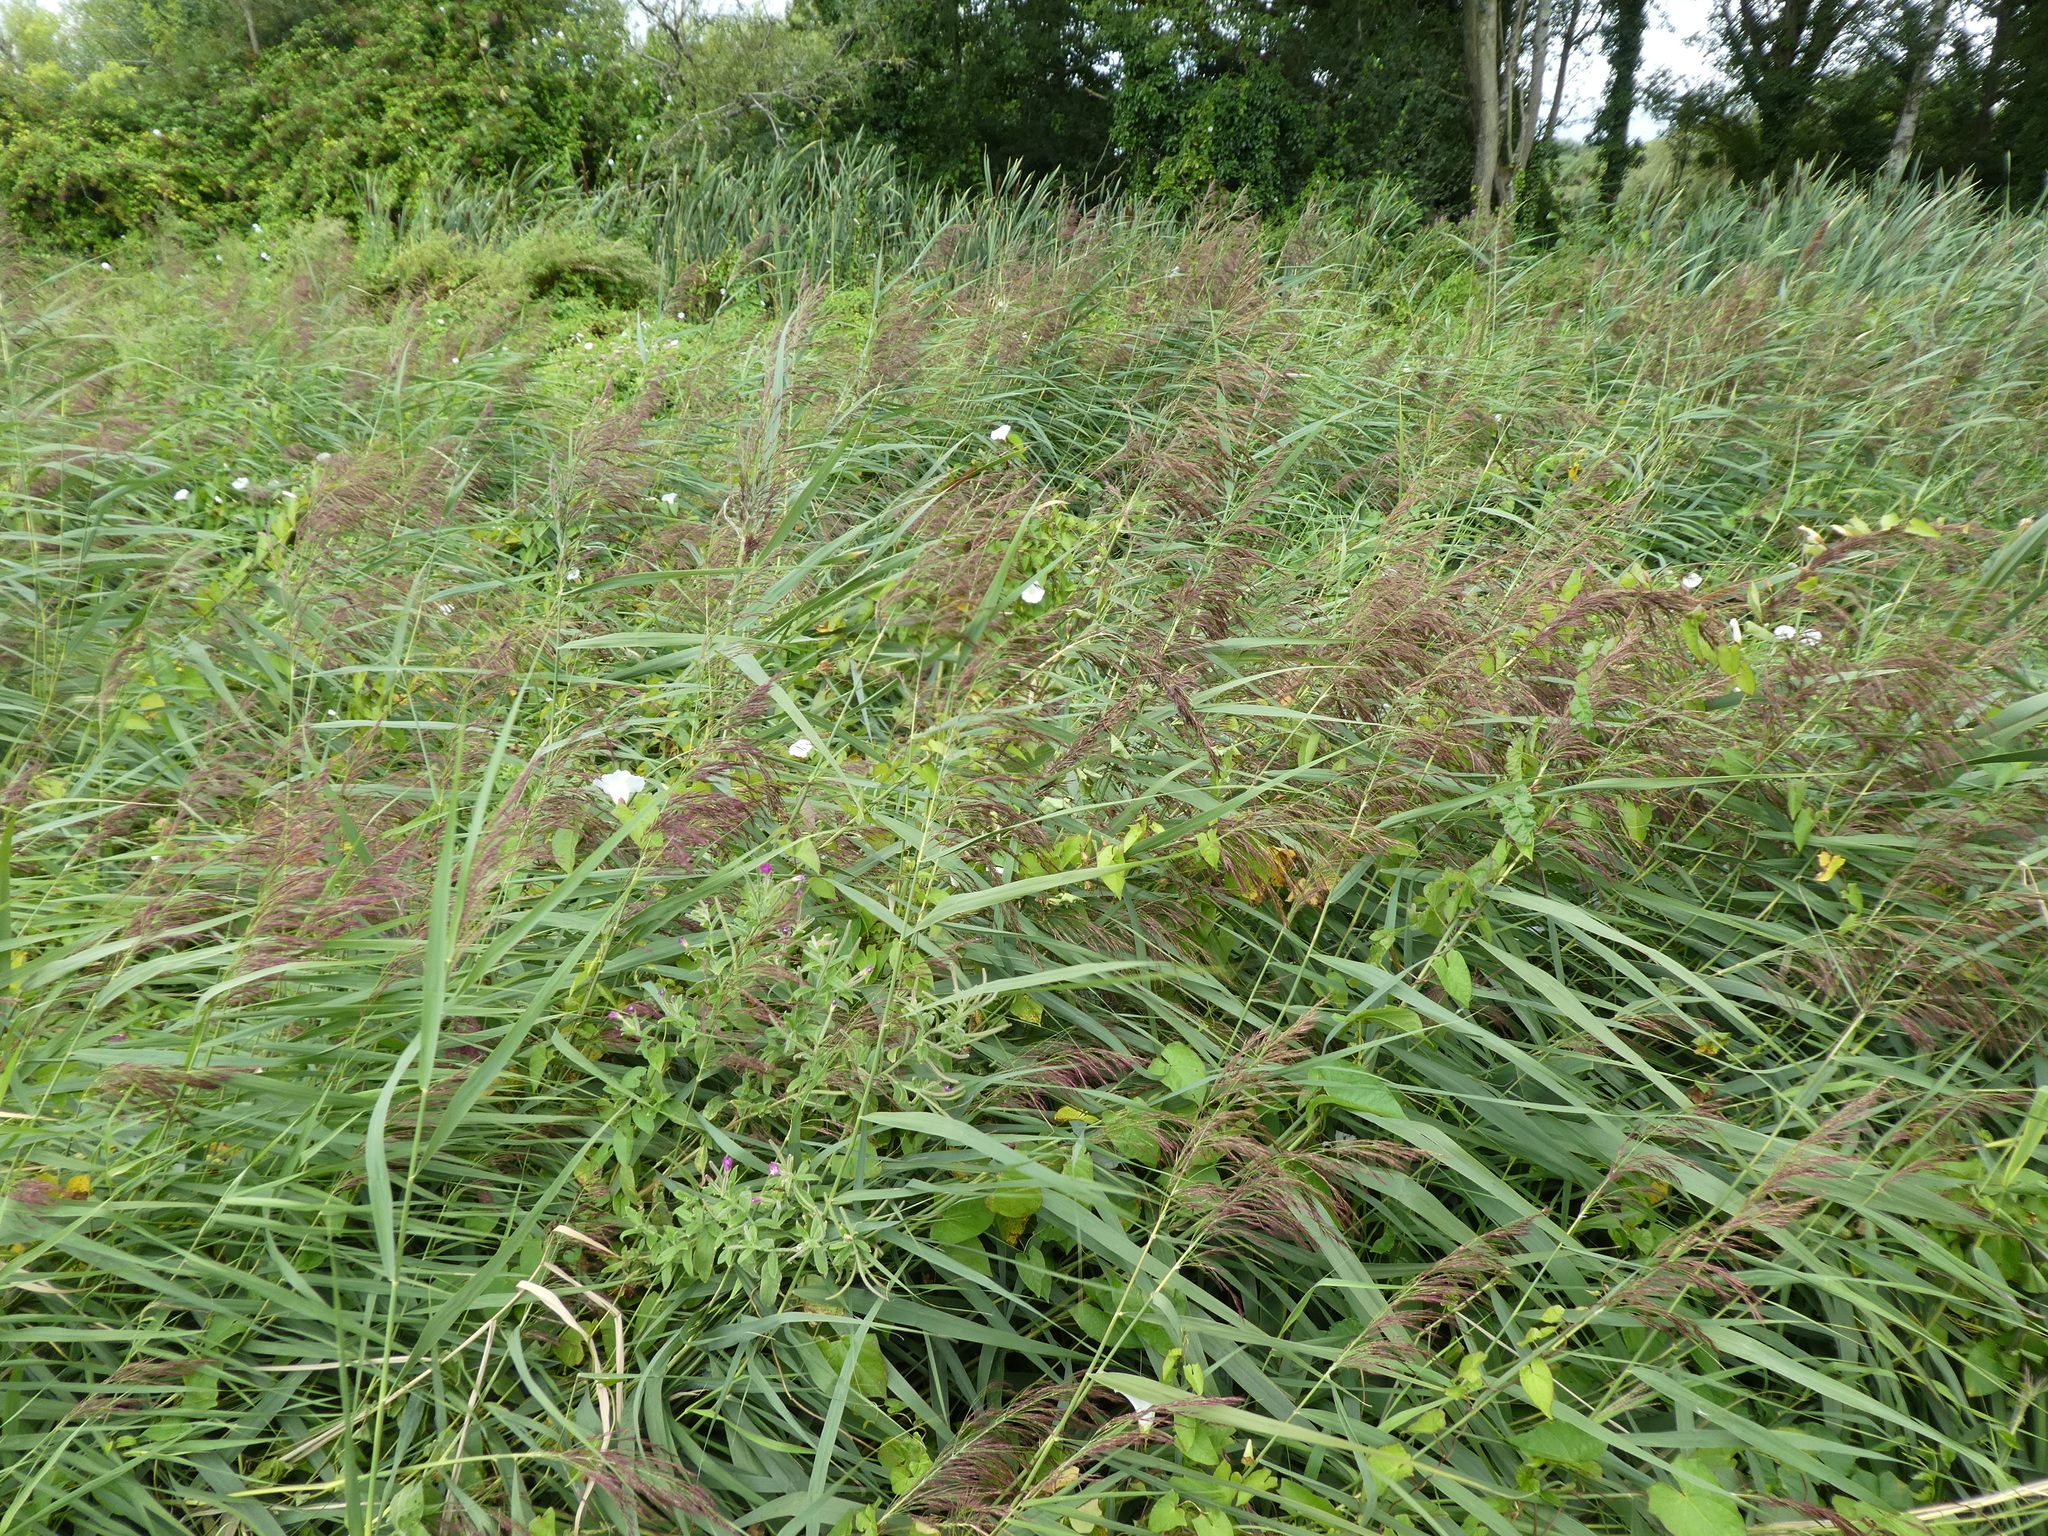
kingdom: Plantae
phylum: Tracheophyta
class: Liliopsida
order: Poales
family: Poaceae
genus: Phragmites
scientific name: Phragmites australis
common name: Common reed
